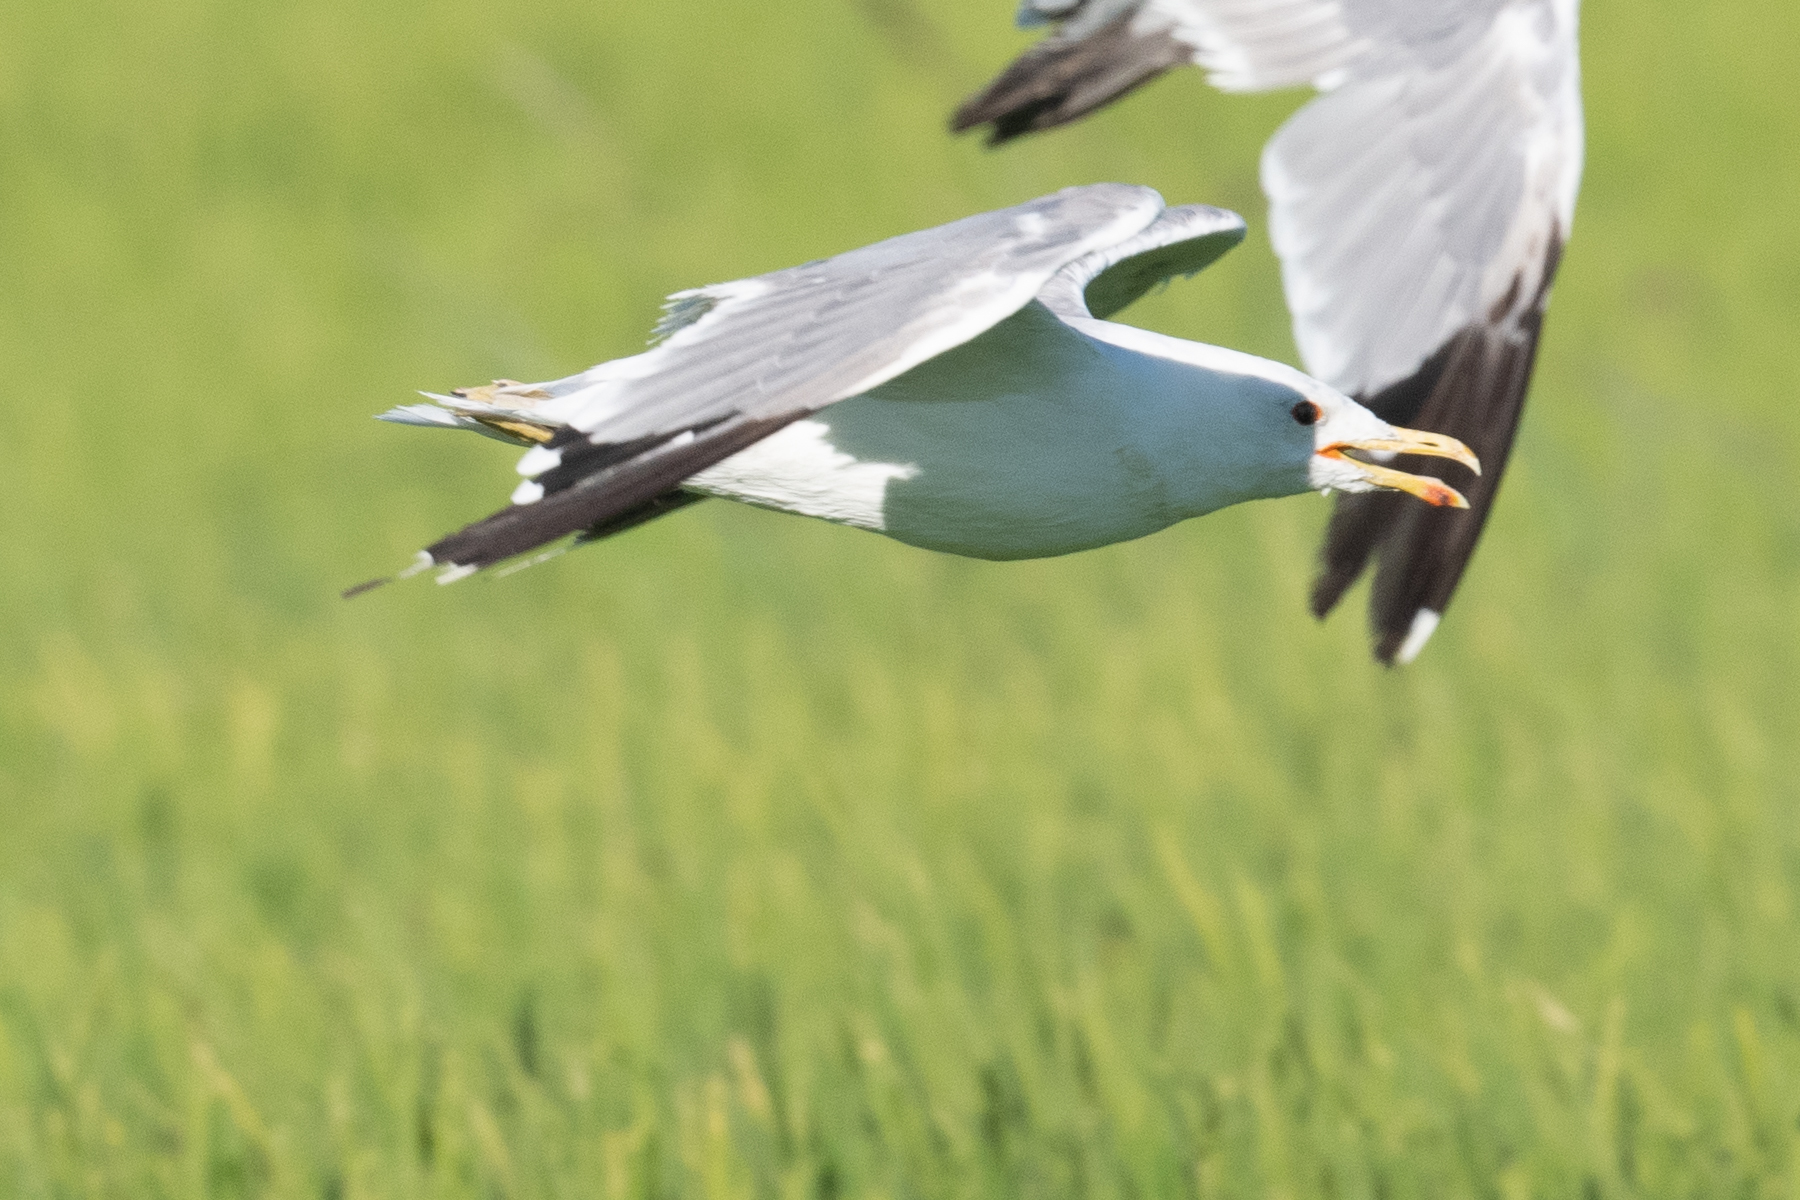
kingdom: Animalia
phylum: Chordata
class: Aves
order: Charadriiformes
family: Laridae
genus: Larus
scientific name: Larus californicus
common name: California gull
